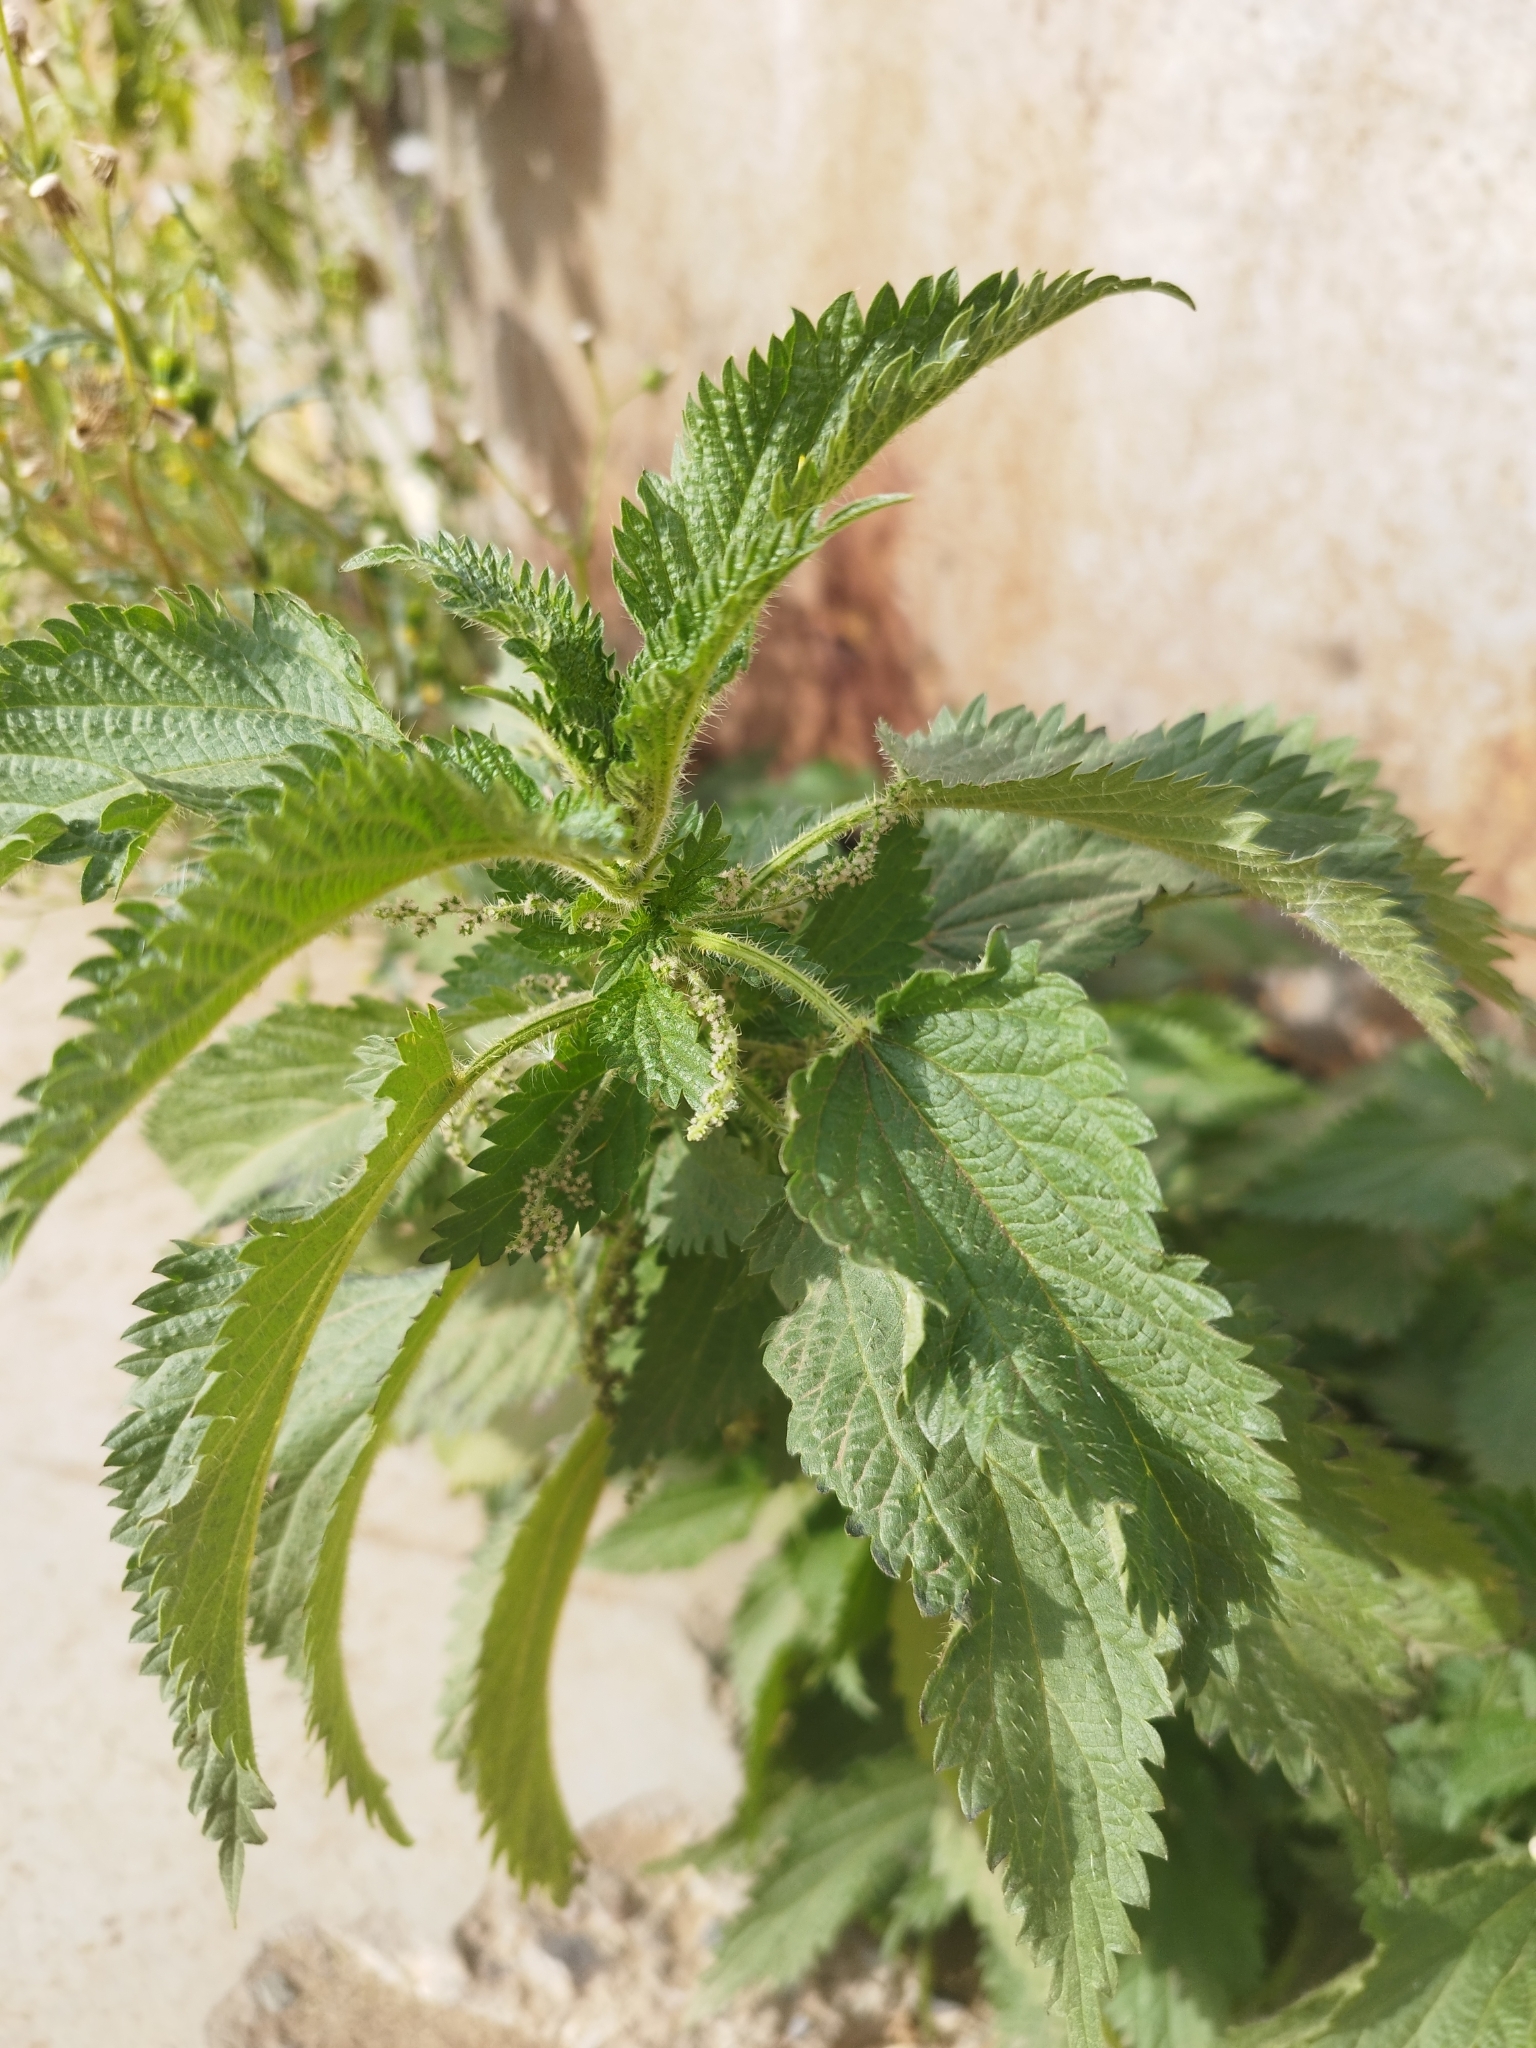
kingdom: Plantae
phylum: Tracheophyta
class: Magnoliopsida
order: Rosales
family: Urticaceae
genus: Urtica
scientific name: Urtica dioica
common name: Common nettle
